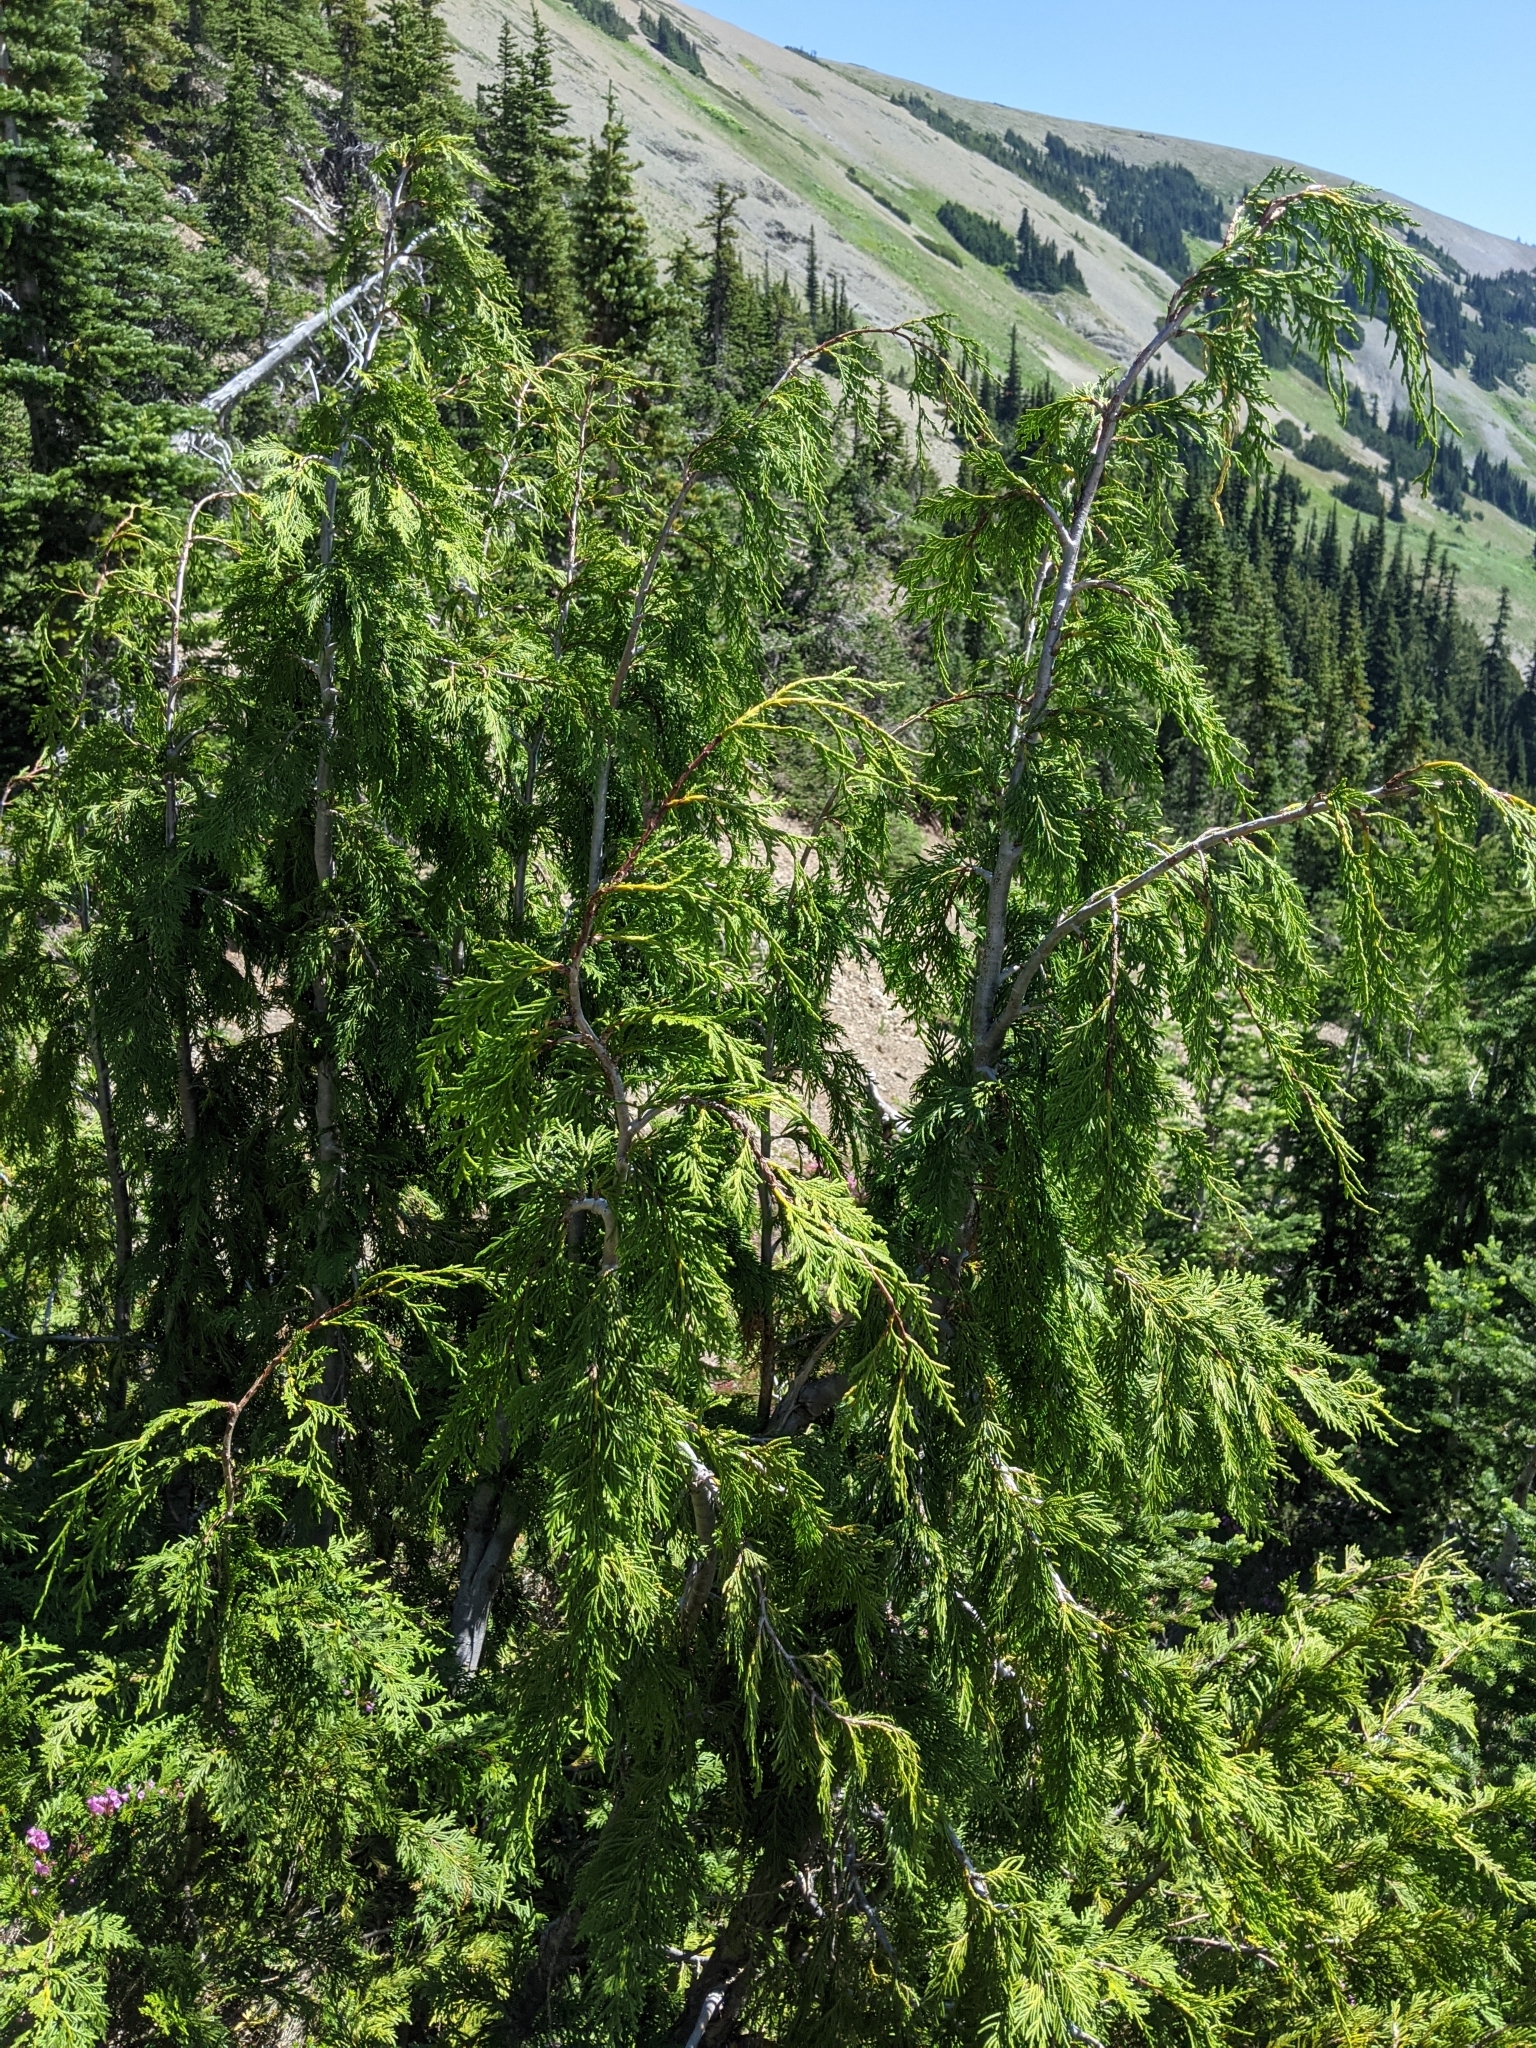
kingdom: Plantae
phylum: Tracheophyta
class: Pinopsida
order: Pinales
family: Cupressaceae
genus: Xanthocyparis
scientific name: Xanthocyparis nootkatensis
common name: Nootka cypress
